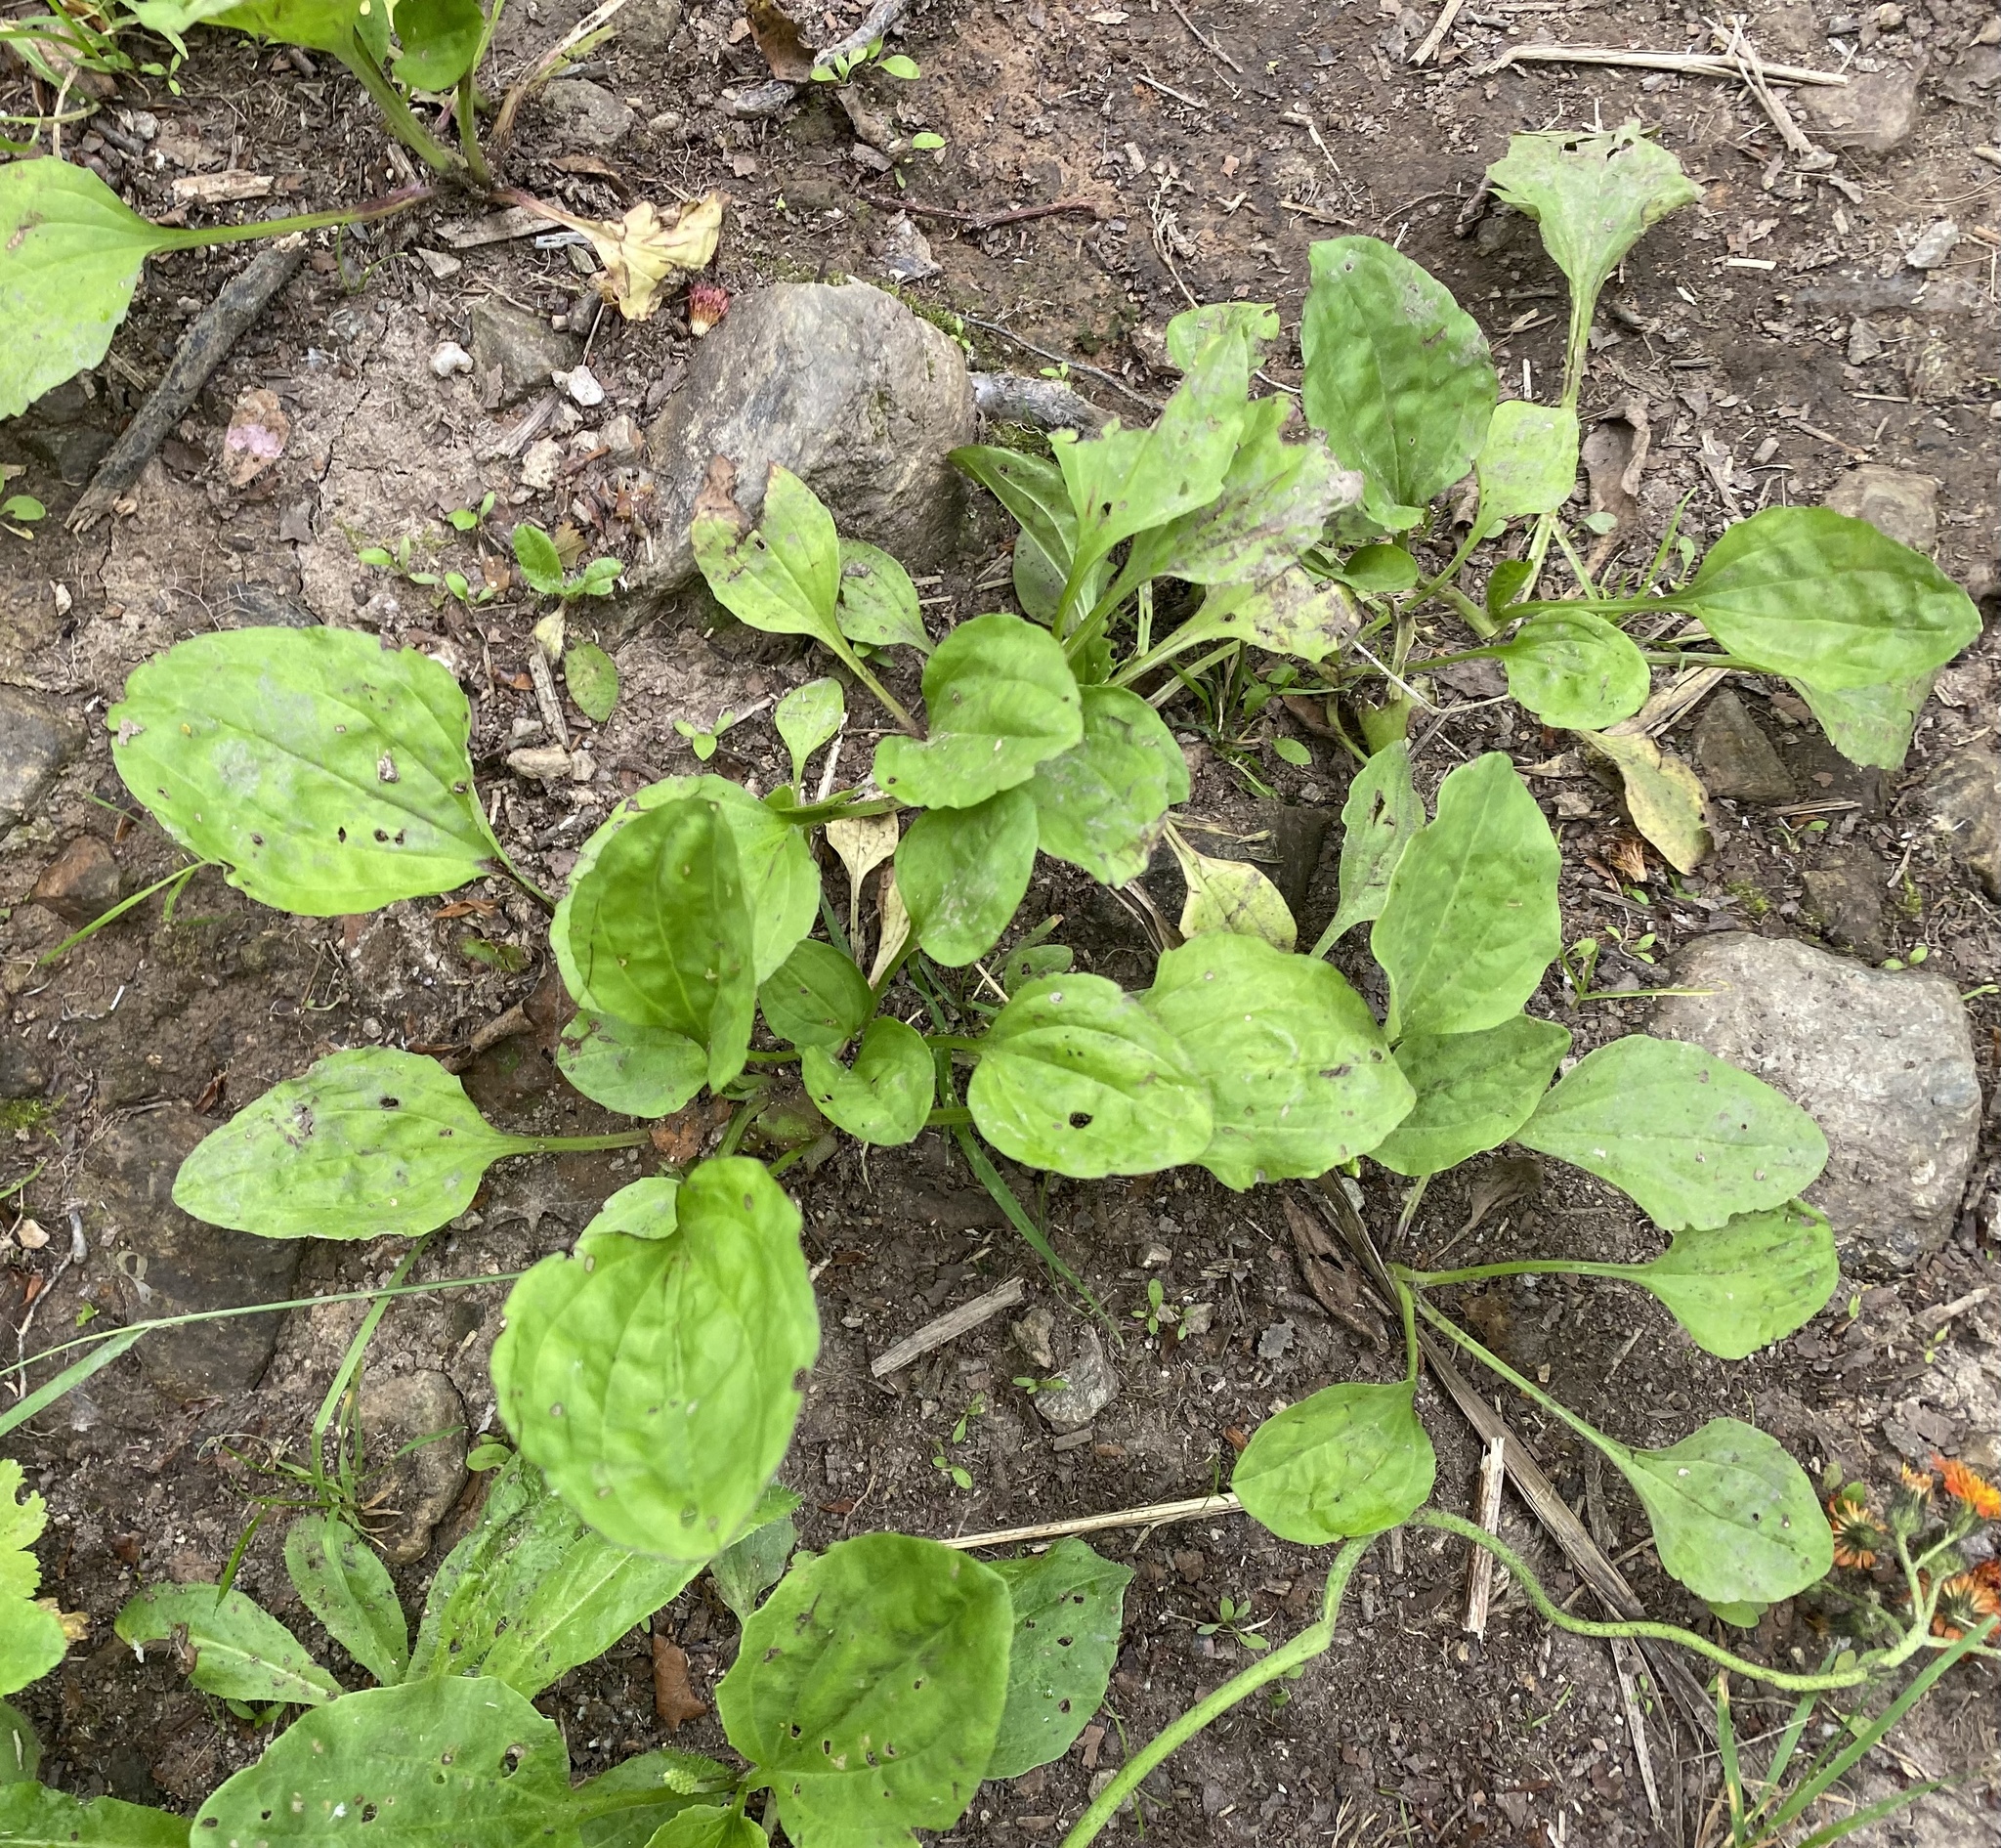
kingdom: Plantae
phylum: Tracheophyta
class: Magnoliopsida
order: Lamiales
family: Plantaginaceae
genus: Plantago
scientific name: Plantago major
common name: Common plantain
